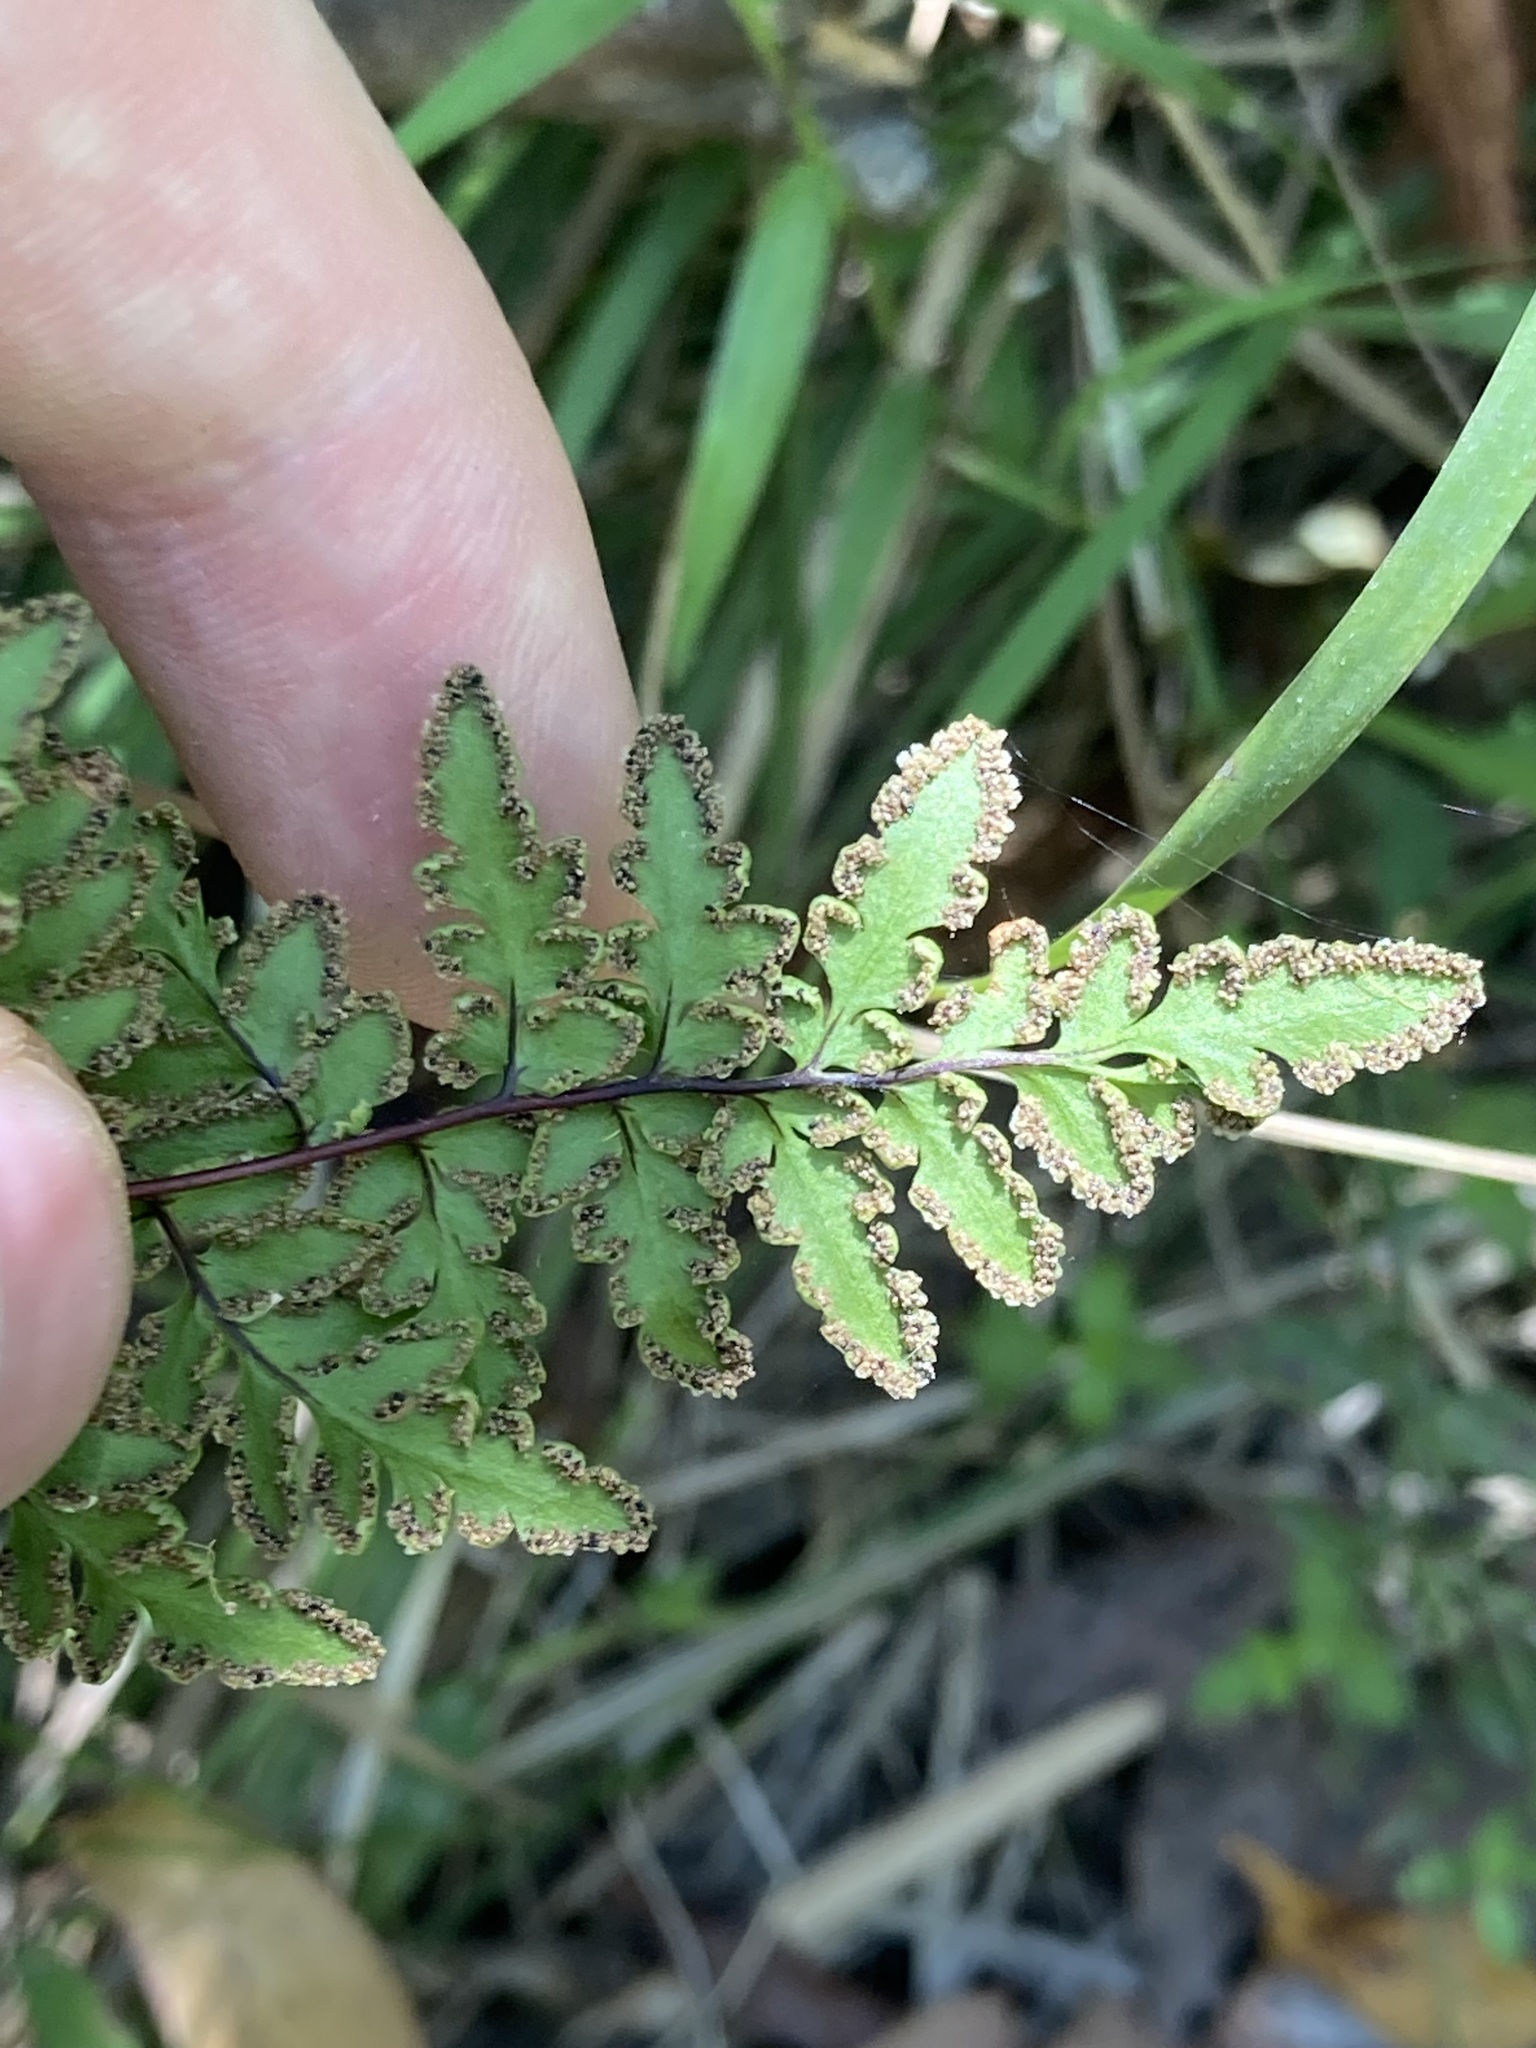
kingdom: Plantae
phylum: Tracheophyta
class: Polypodiopsida
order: Polypodiales
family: Pteridaceae
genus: Cheilanthes
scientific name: Cheilanthes sieberi
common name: Mulga fern
